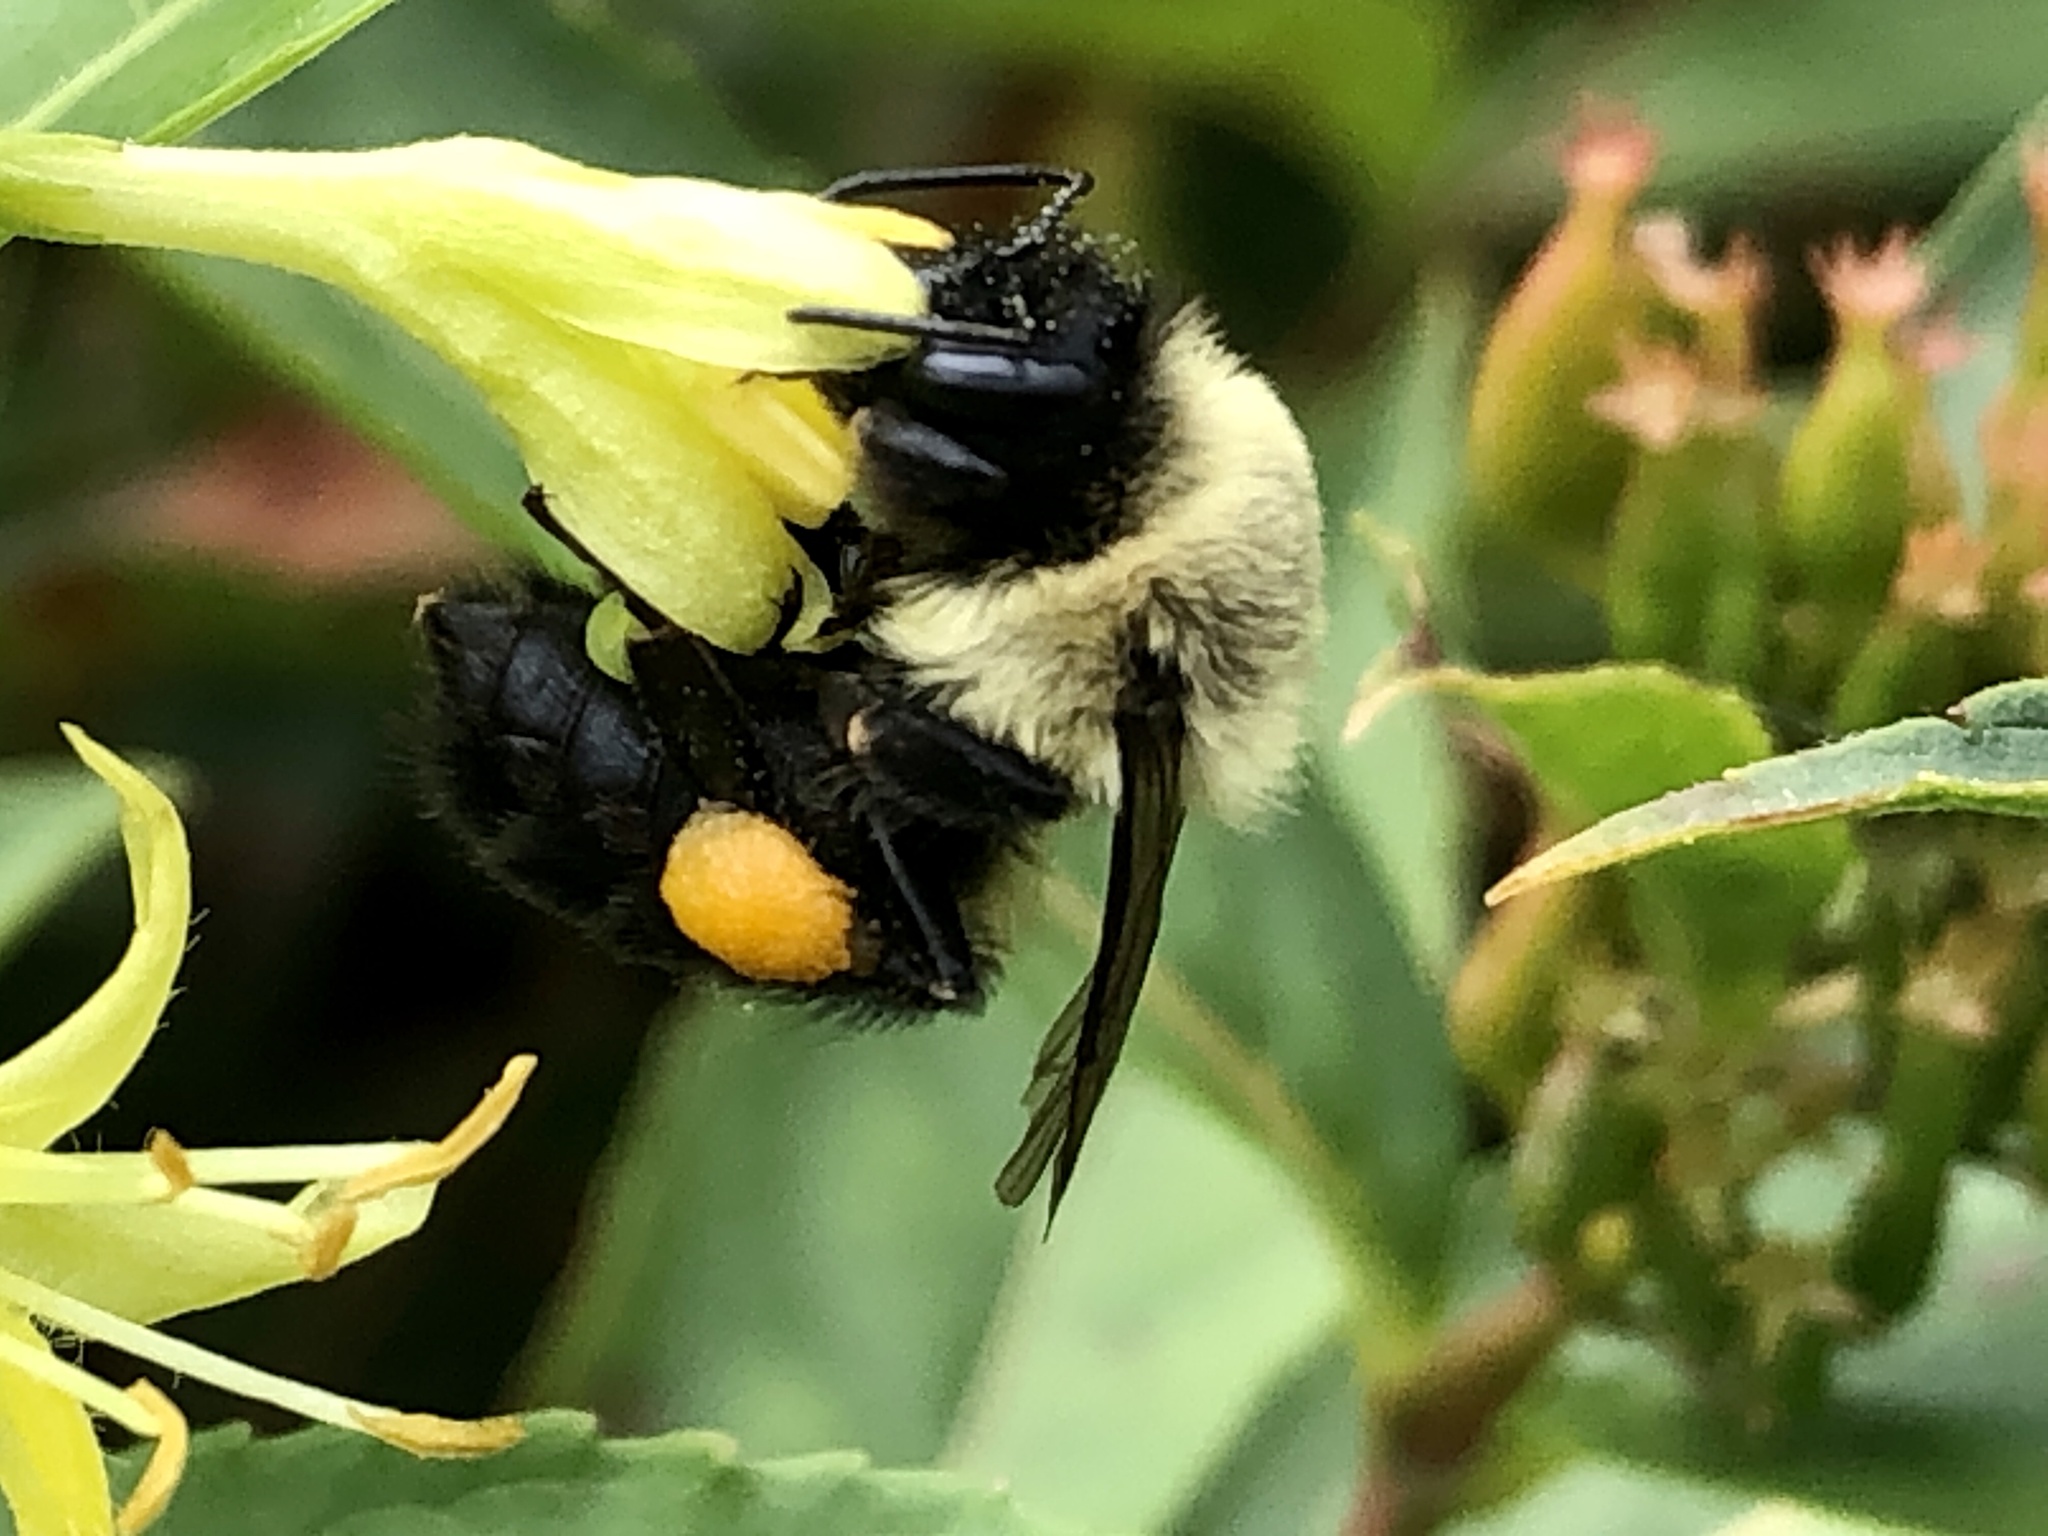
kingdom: Animalia
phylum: Arthropoda
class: Insecta
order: Hymenoptera
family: Apidae
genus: Bombus
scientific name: Bombus impatiens
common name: Common eastern bumble bee
